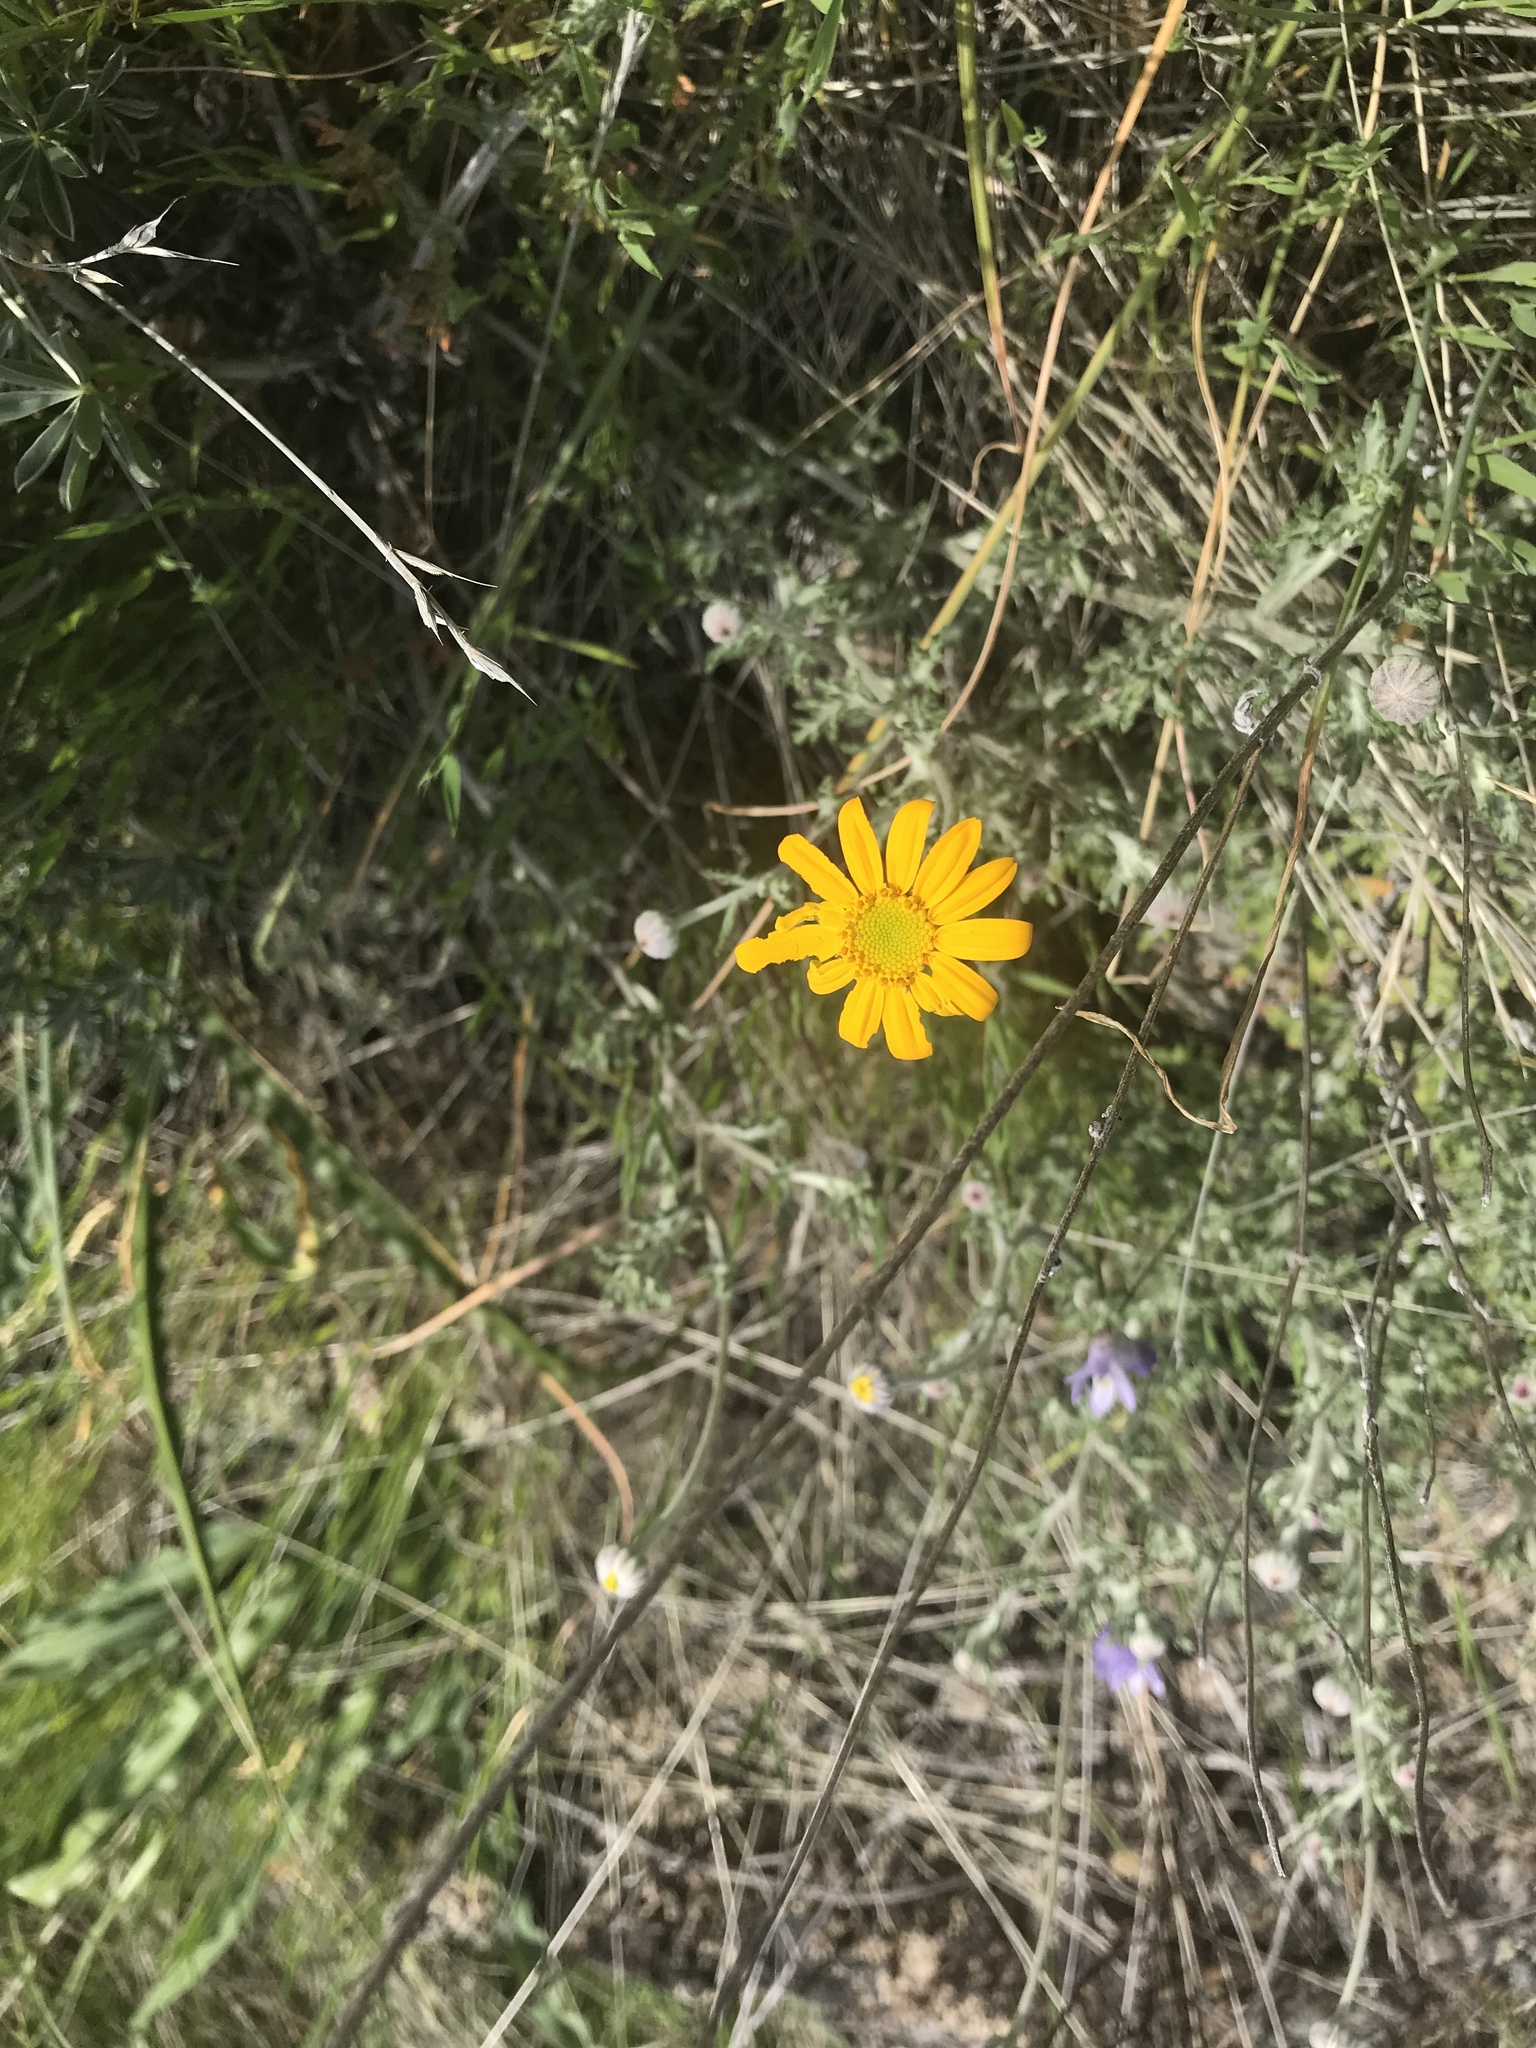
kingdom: Plantae
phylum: Tracheophyta
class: Magnoliopsida
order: Asterales
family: Asteraceae
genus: Eriophyllum
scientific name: Eriophyllum lanatum
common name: Common woolly-sunflower
